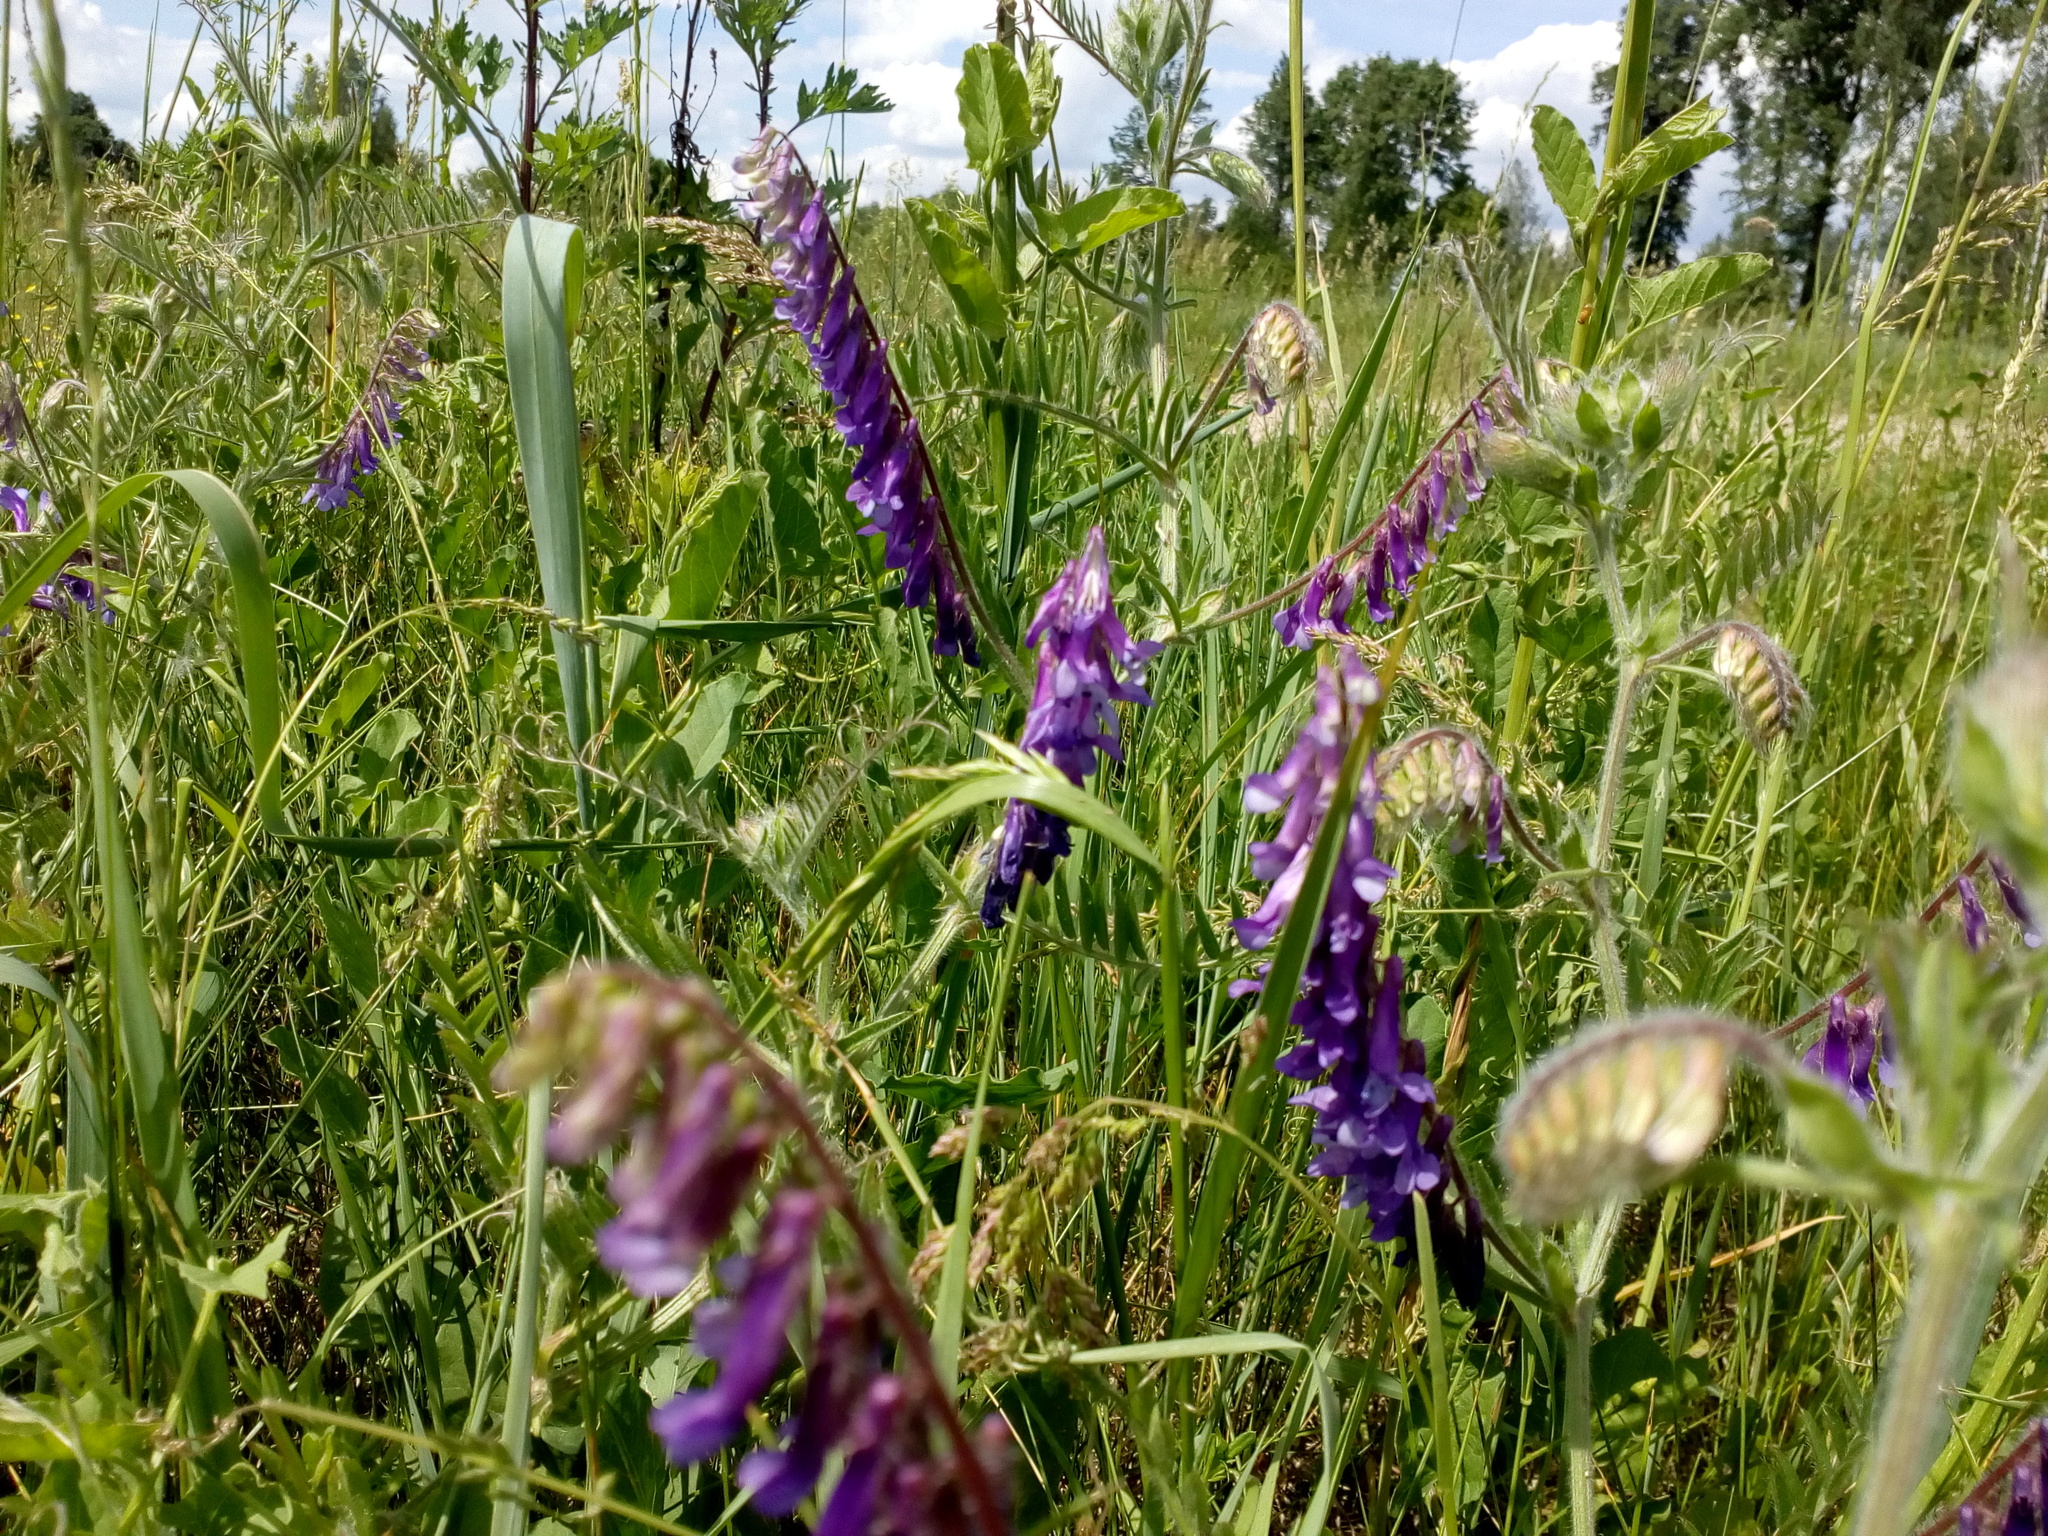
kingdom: Plantae
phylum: Tracheophyta
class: Magnoliopsida
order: Fabales
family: Fabaceae
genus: Vicia
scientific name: Vicia villosa
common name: Fodder vetch
